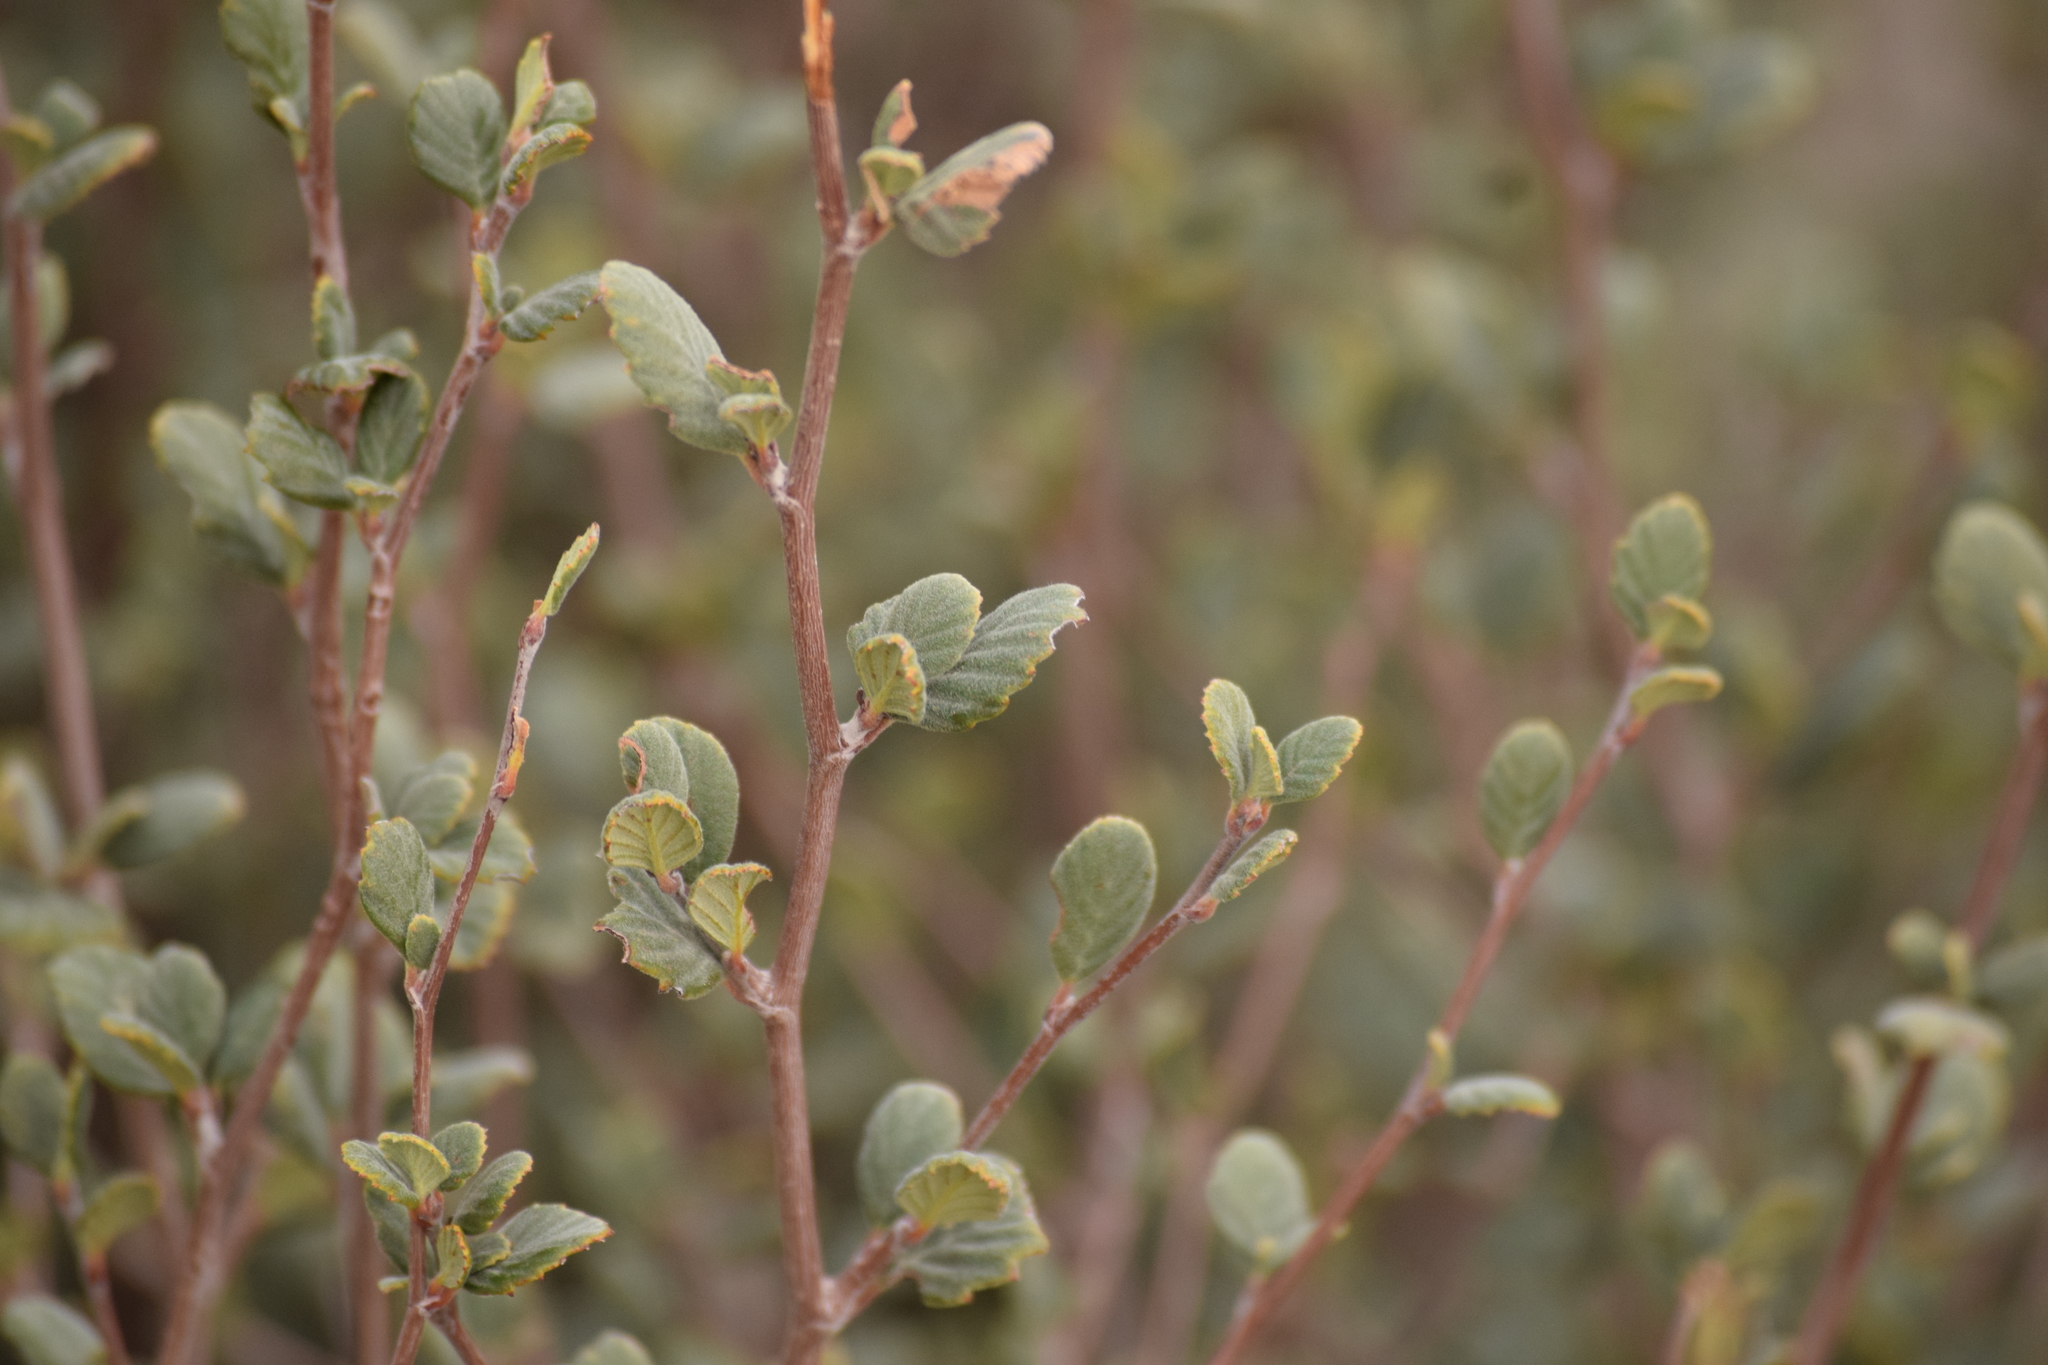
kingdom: Plantae
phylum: Tracheophyta
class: Magnoliopsida
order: Rosales
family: Rosaceae
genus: Cercocarpus
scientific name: Cercocarpus betuloides
